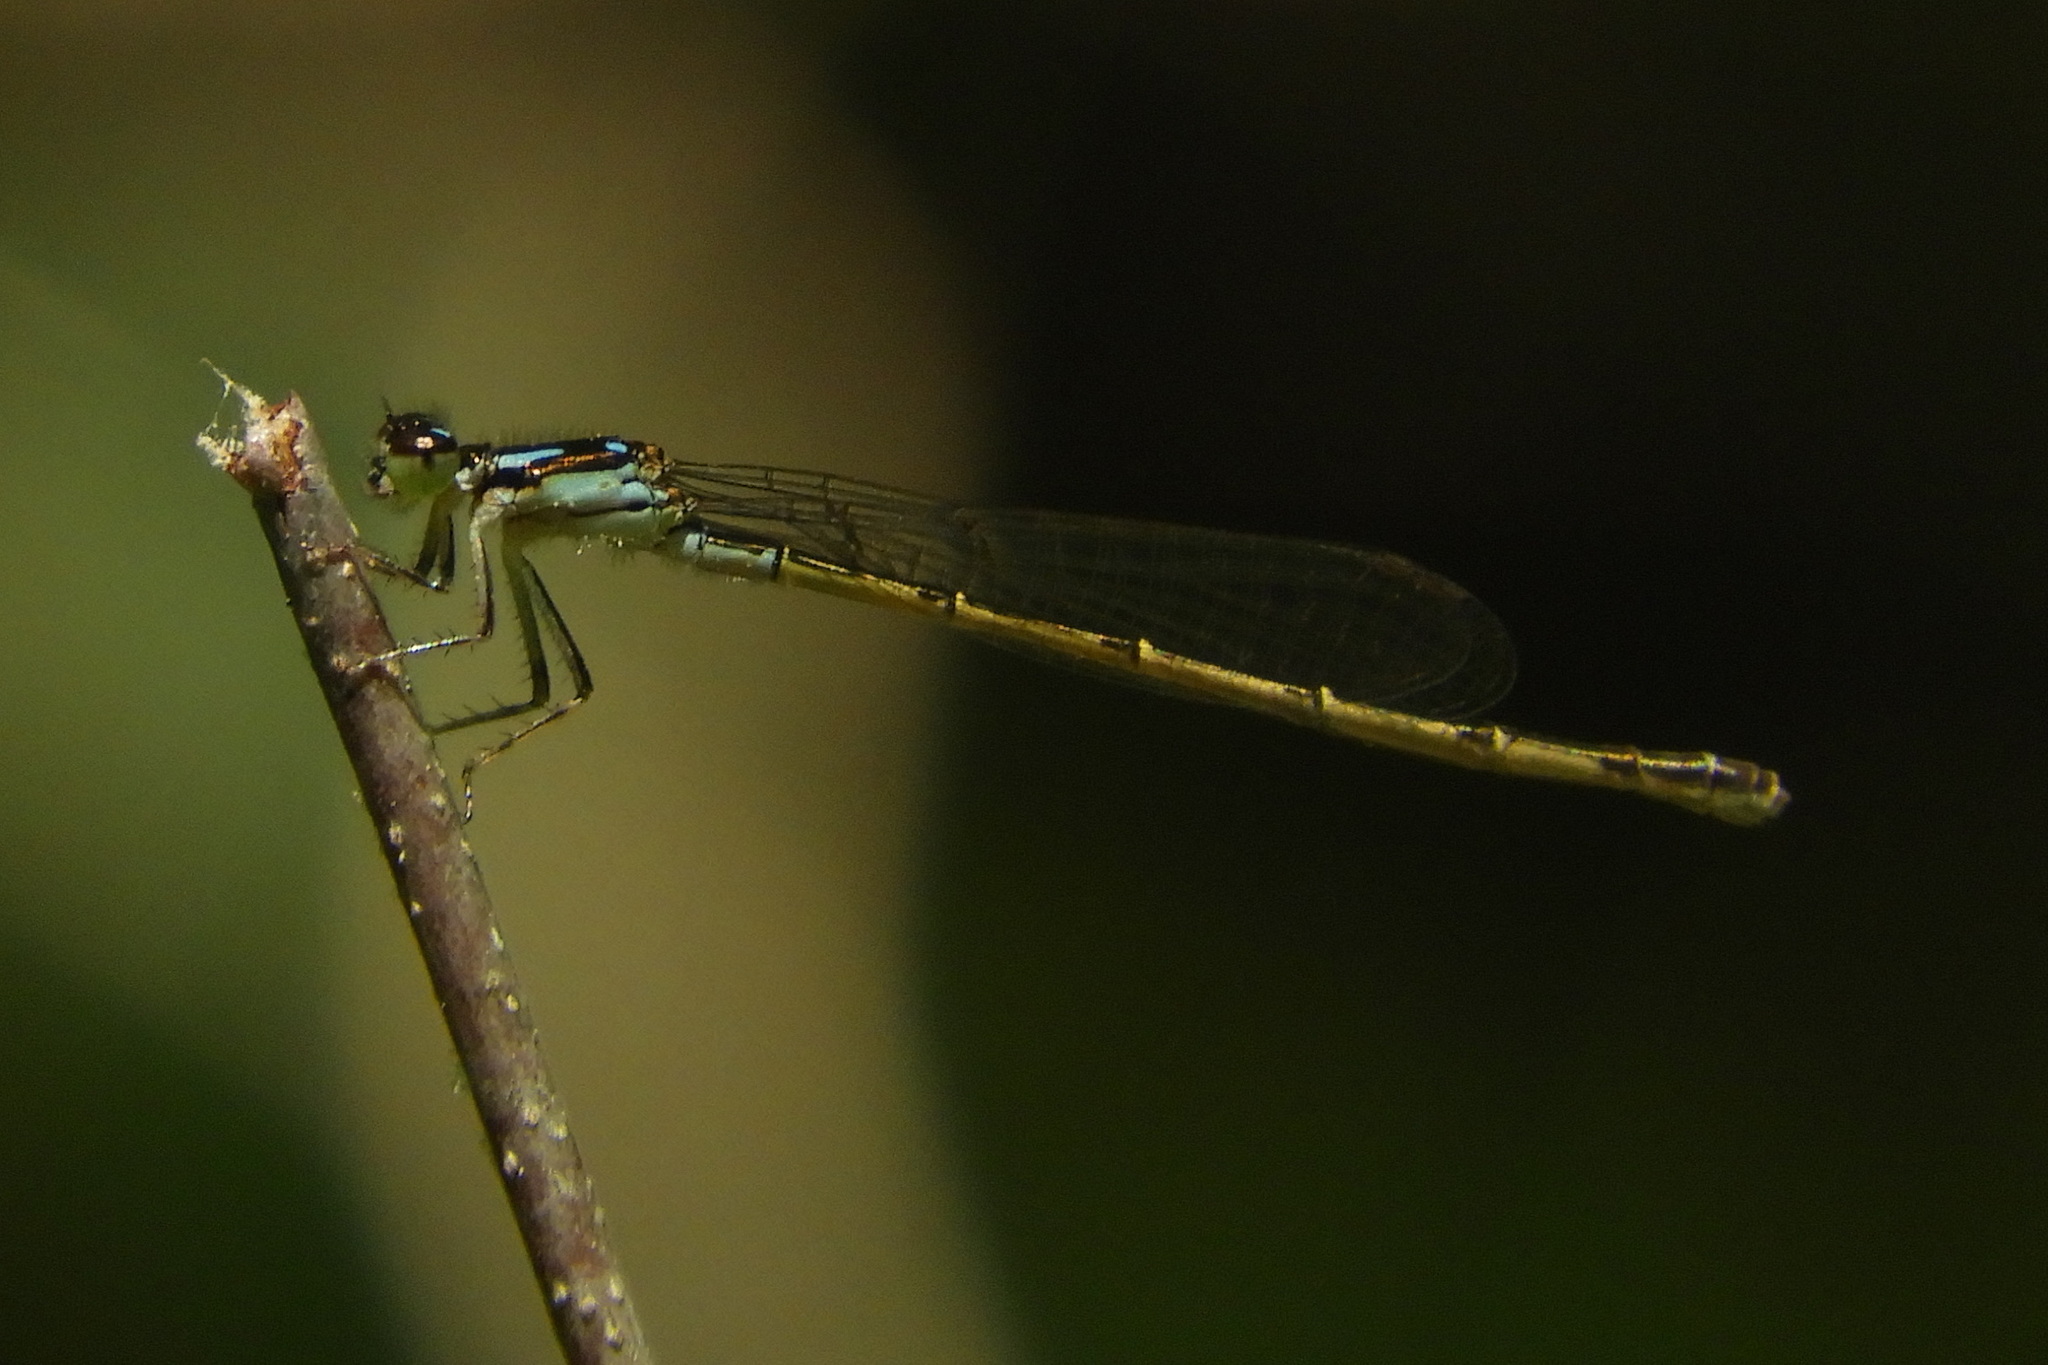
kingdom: Animalia
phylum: Arthropoda
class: Insecta
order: Odonata
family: Coenagrionidae
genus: Ischnura
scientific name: Ischnura posita
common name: Fragile forktail
